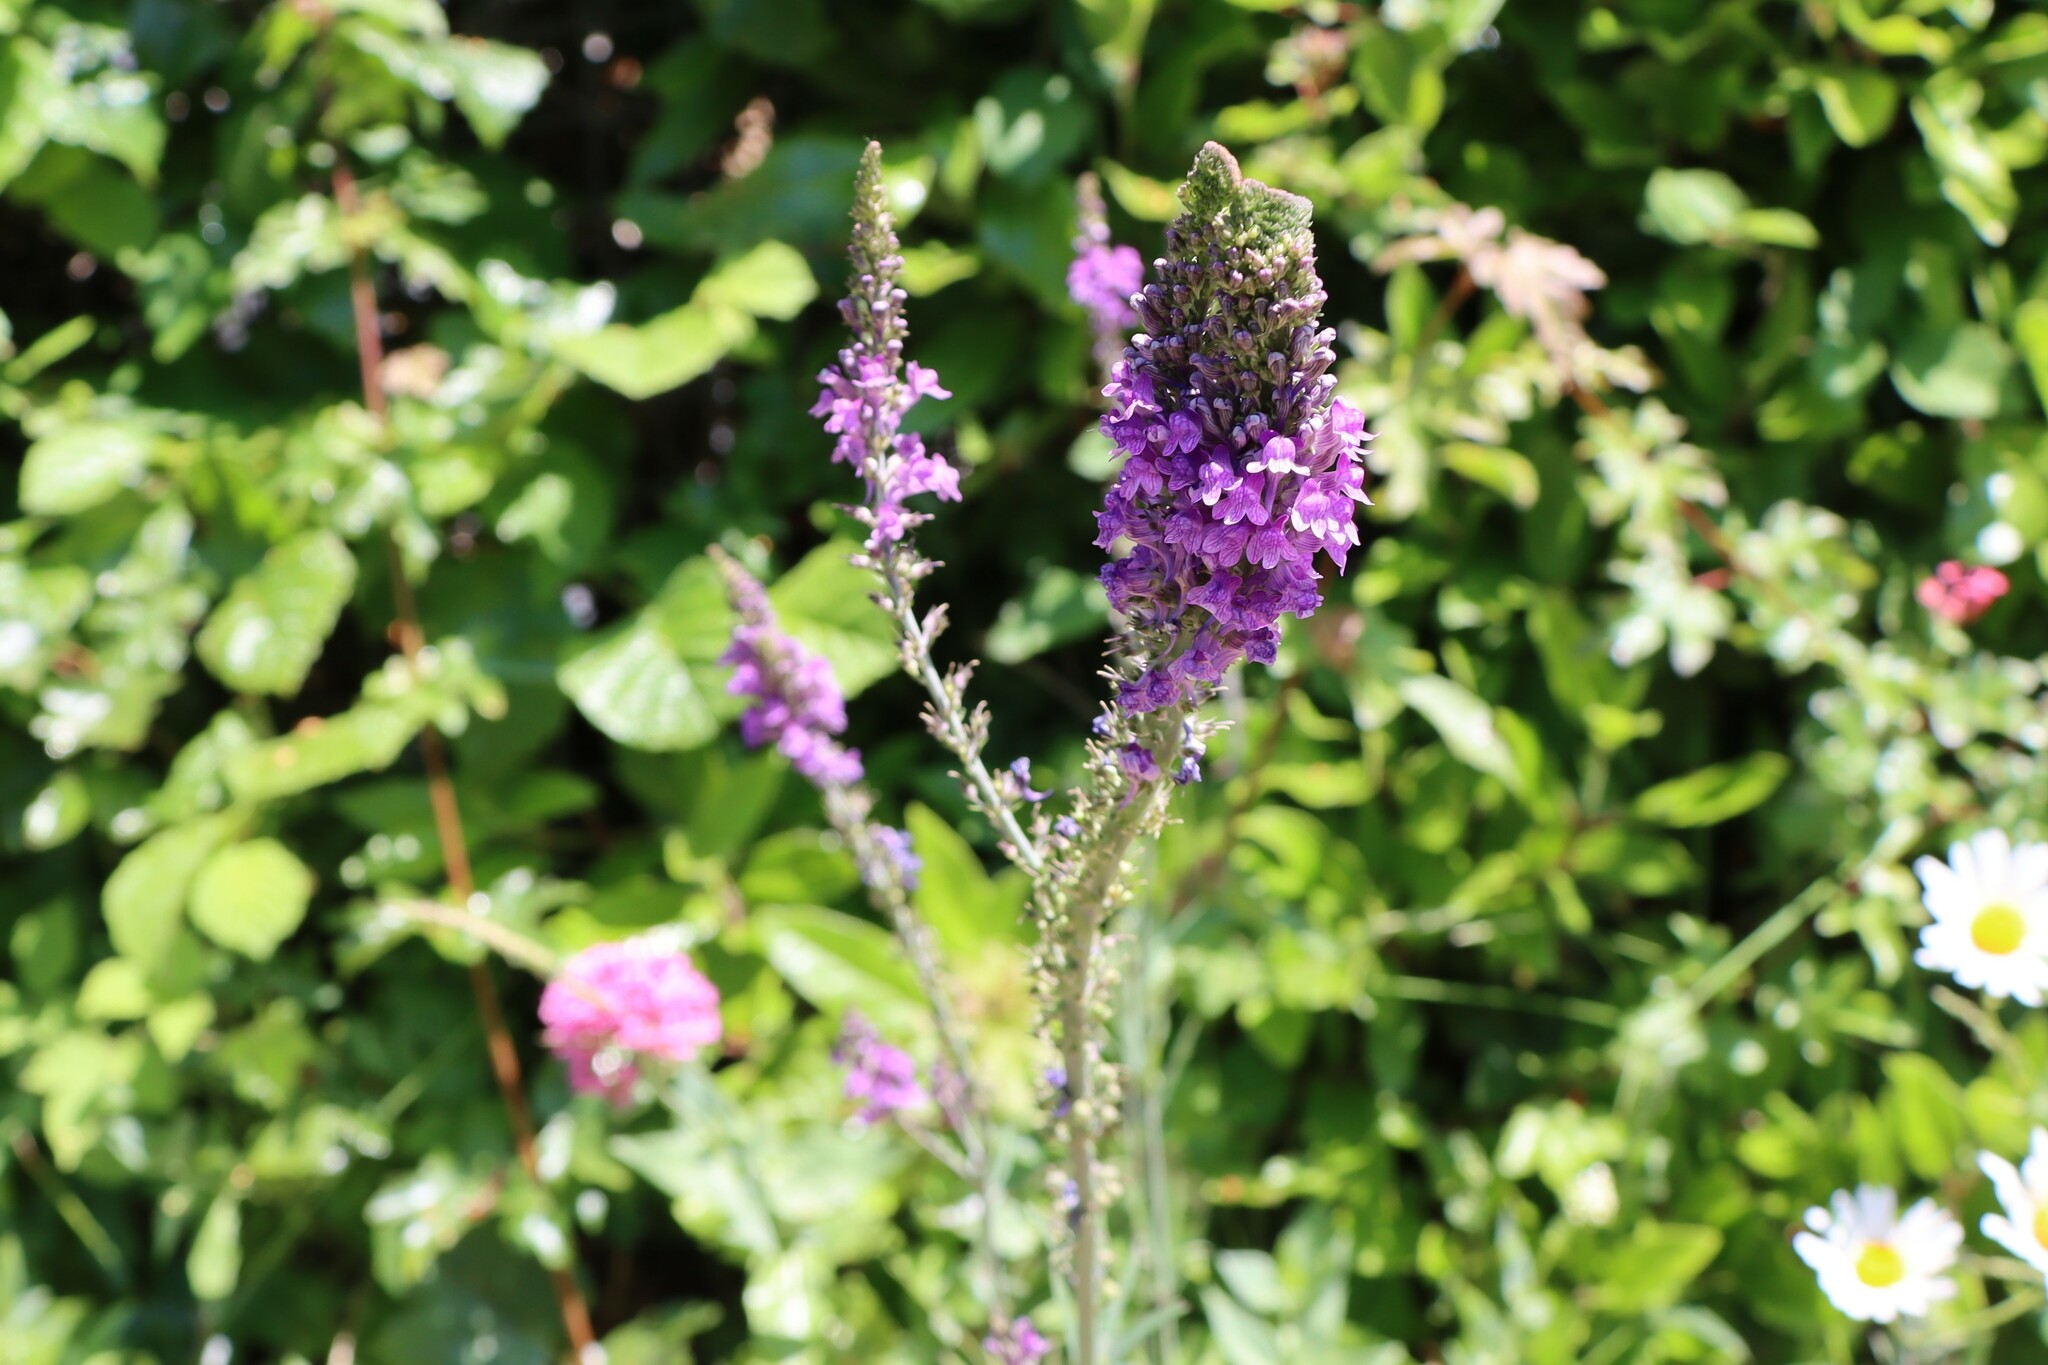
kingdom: Plantae
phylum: Tracheophyta
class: Magnoliopsida
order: Lamiales
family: Plantaginaceae
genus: Linaria
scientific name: Linaria purpurea
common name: Purple toadflax
